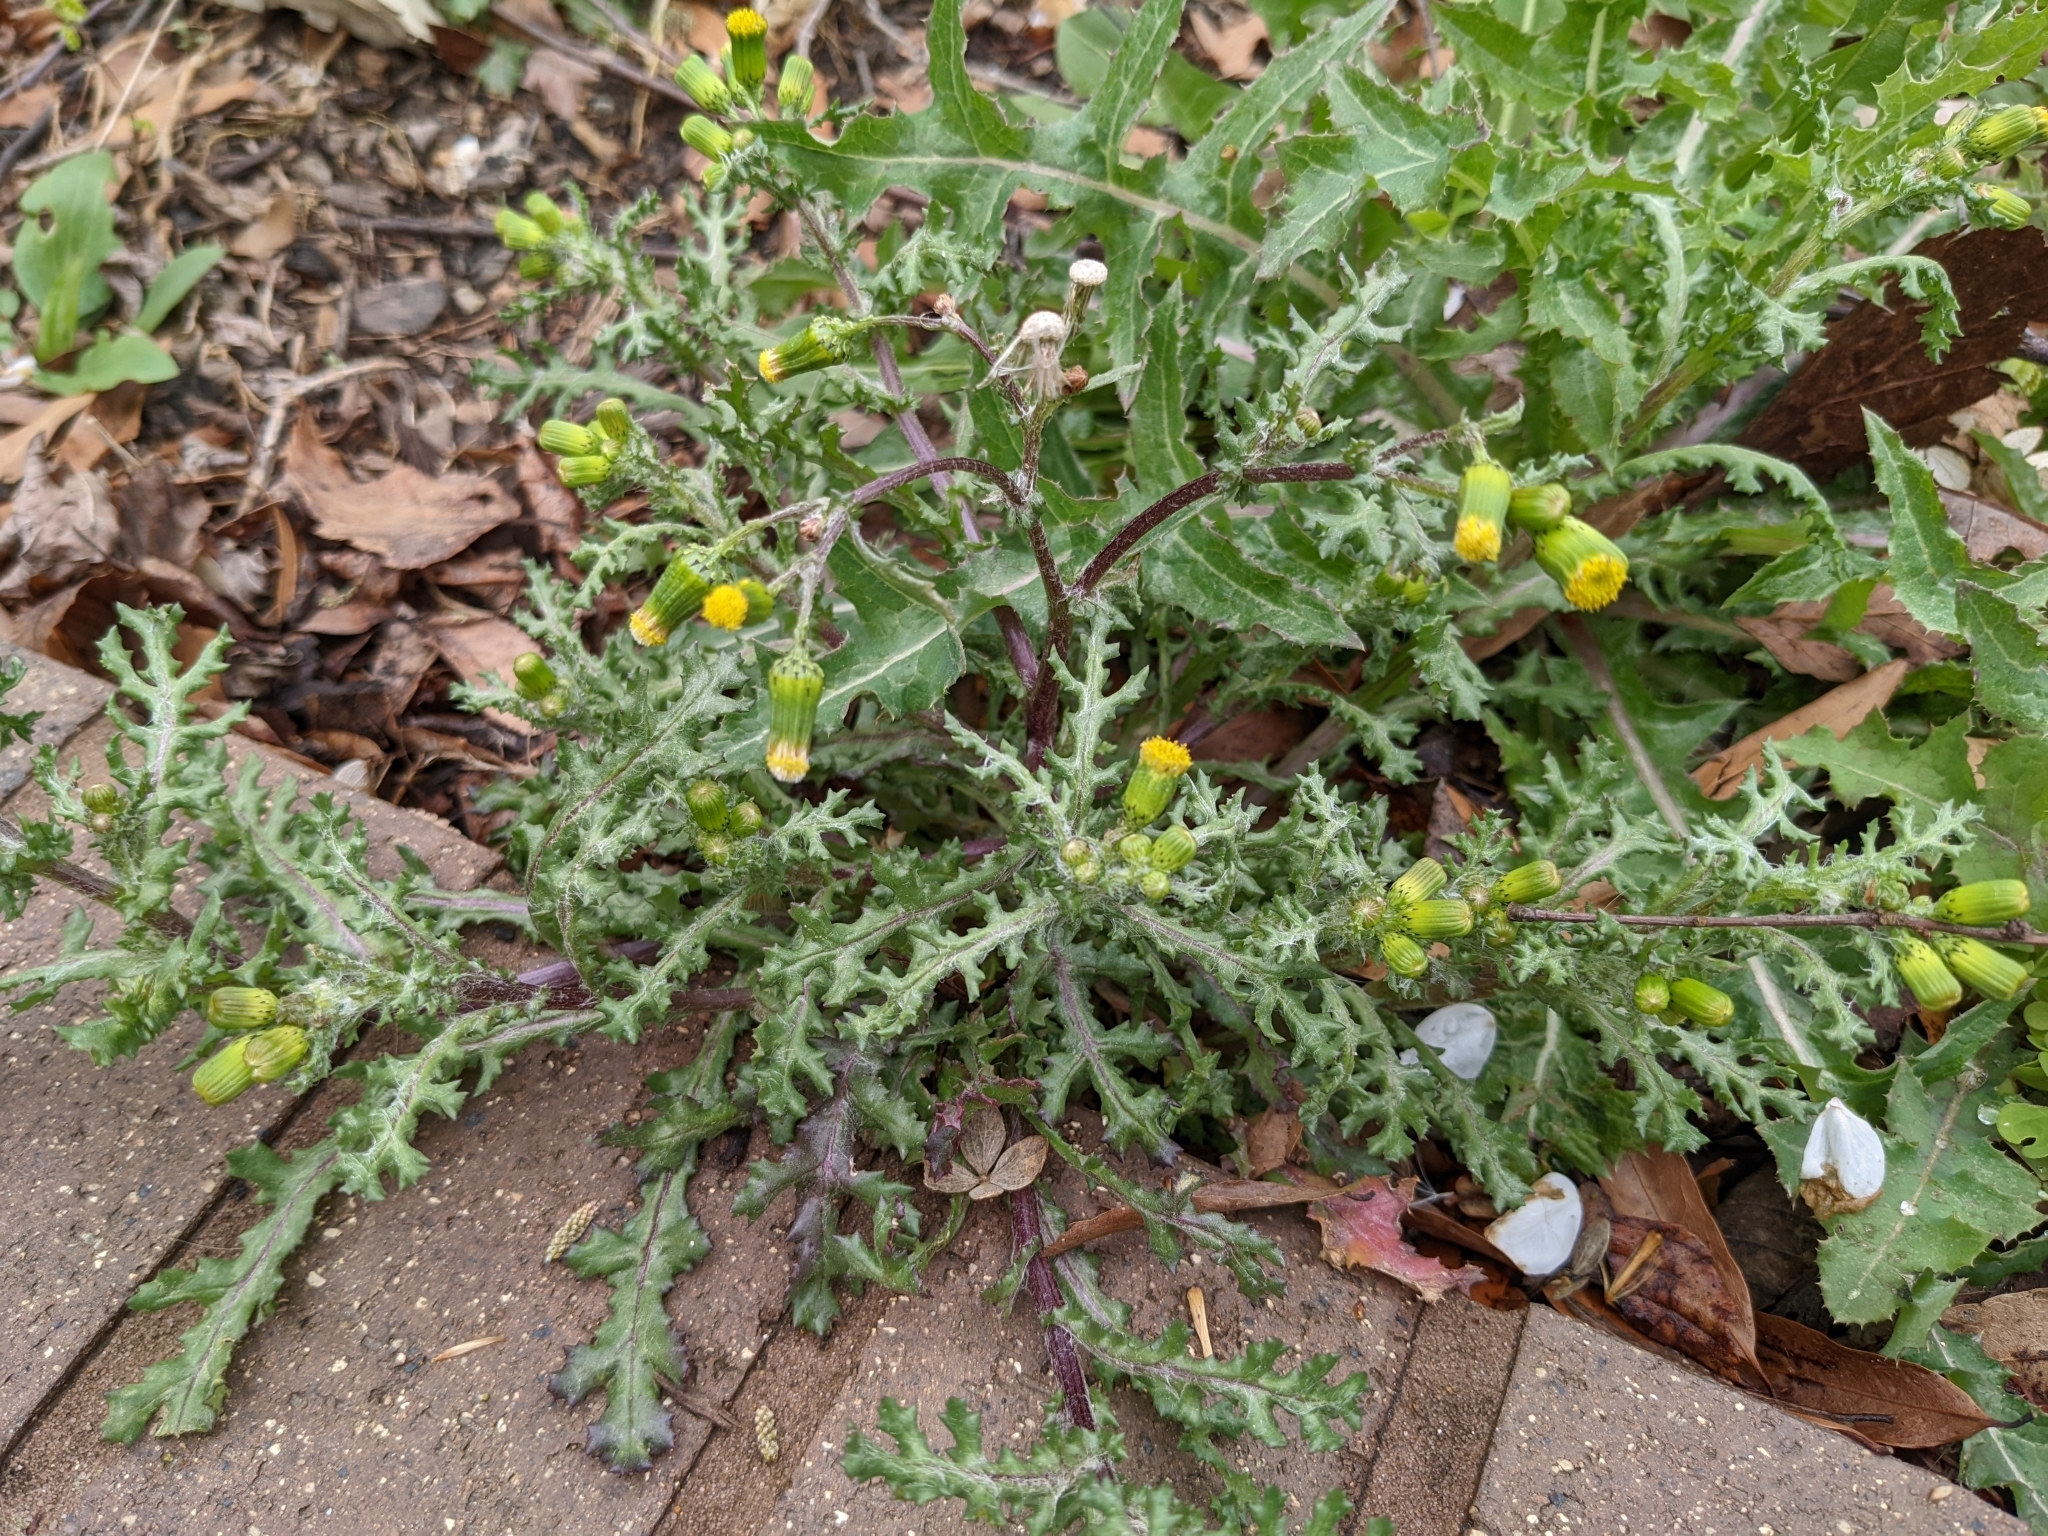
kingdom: Plantae
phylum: Tracheophyta
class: Magnoliopsida
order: Asterales
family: Asteraceae
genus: Senecio
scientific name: Senecio vulgaris
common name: Old-man-in-the-spring
